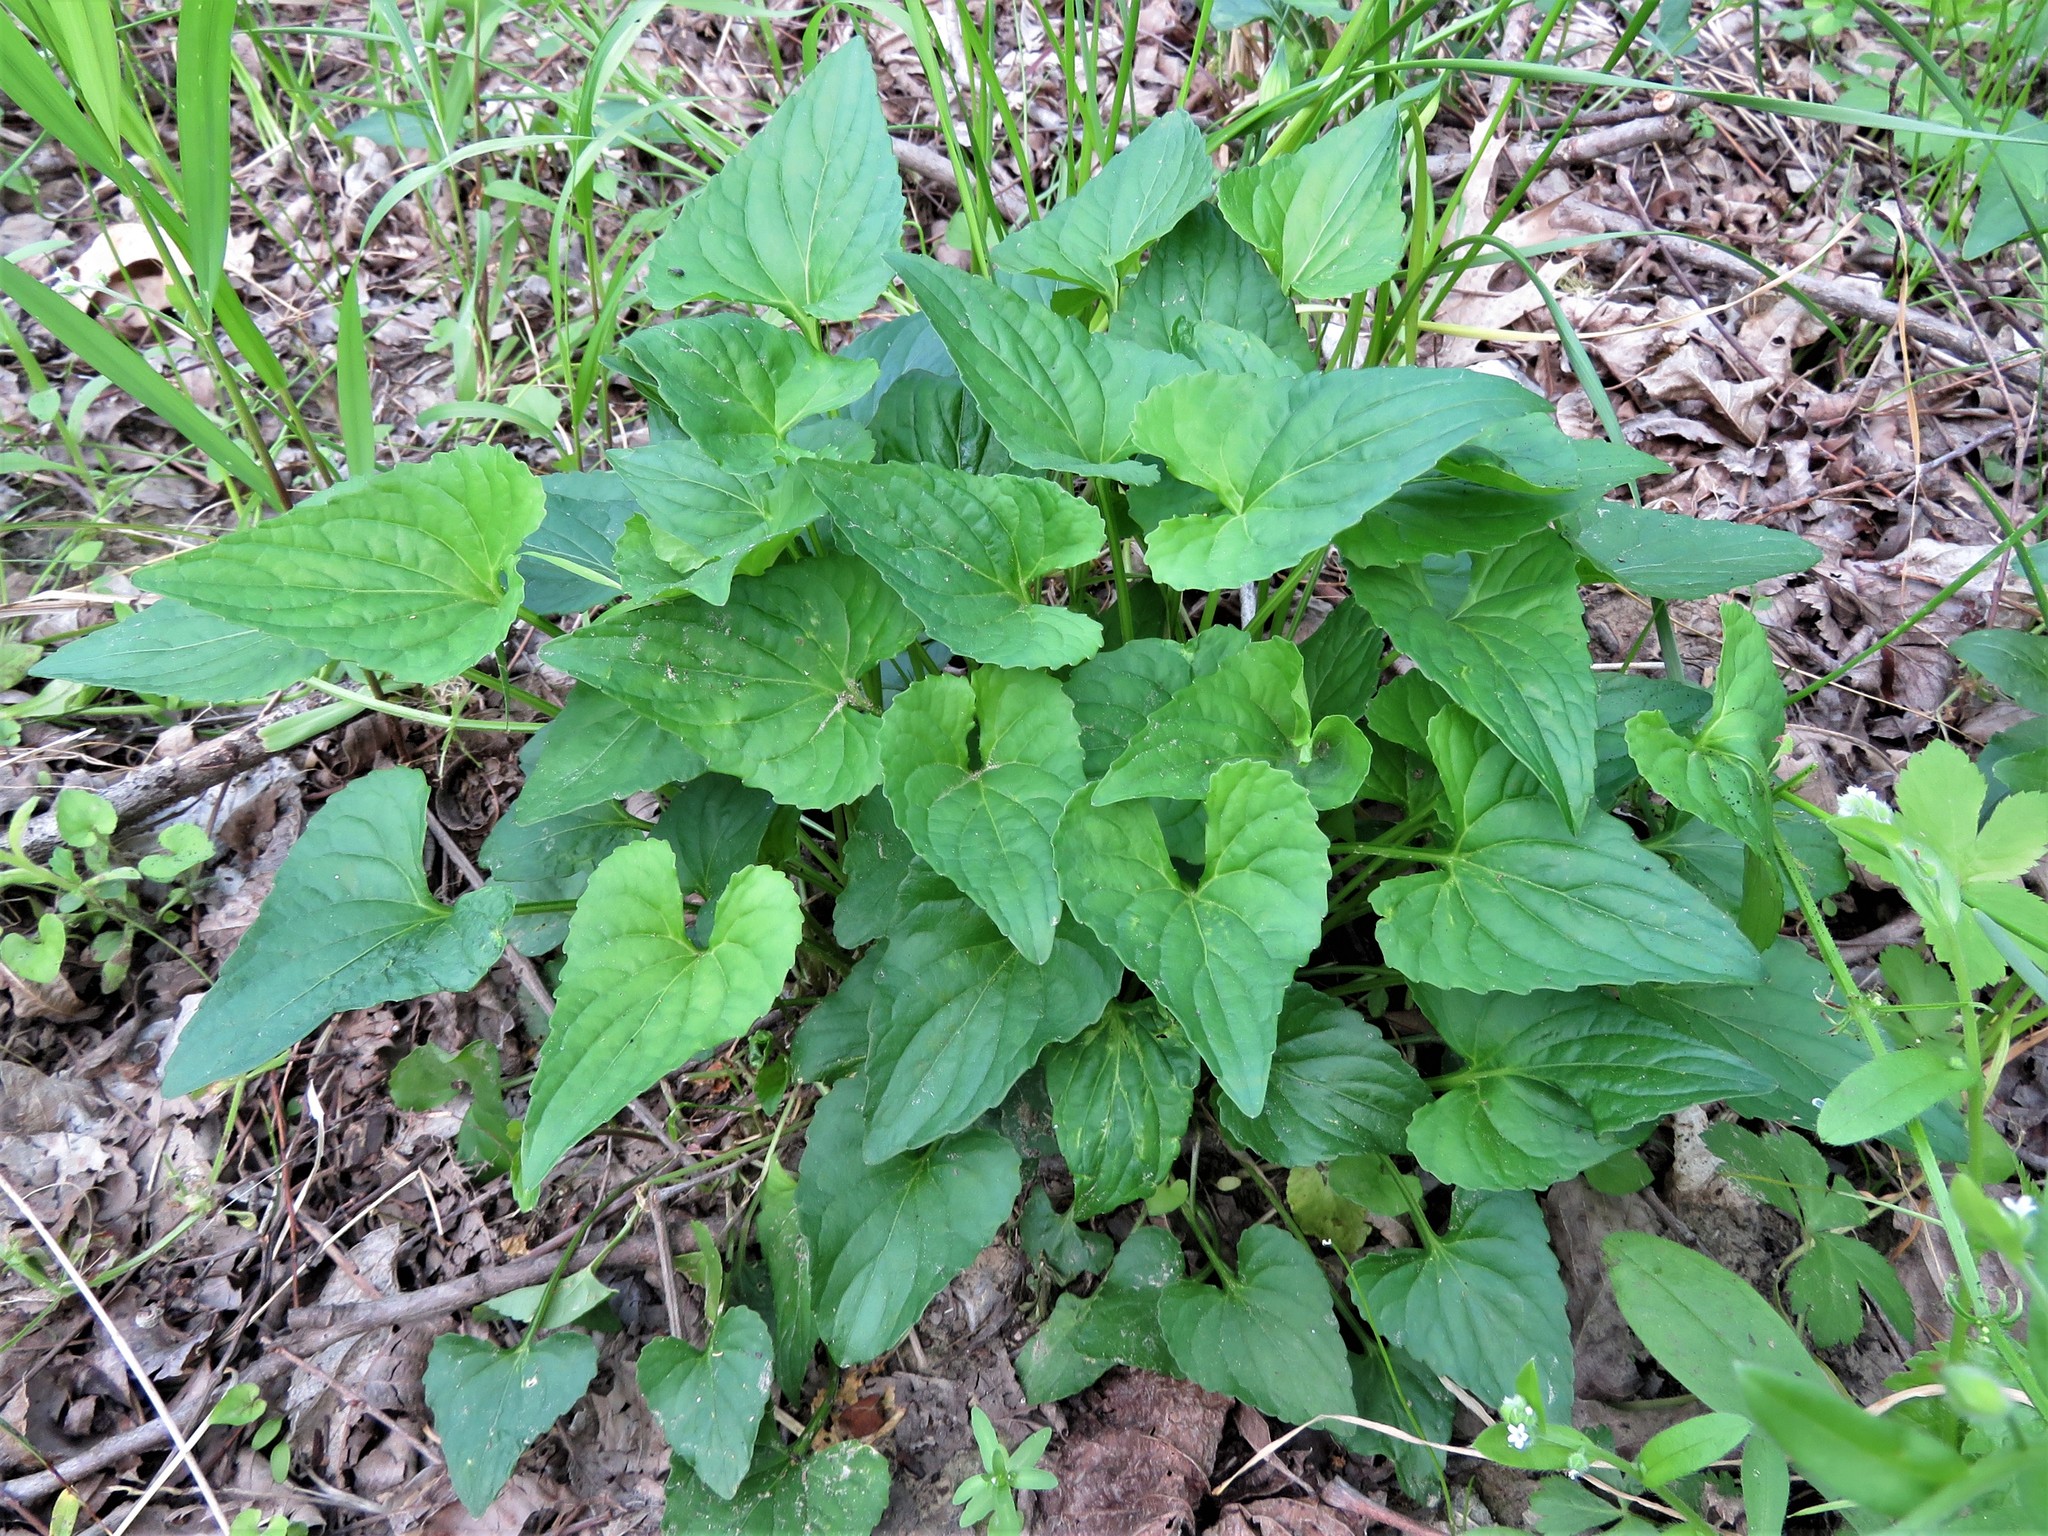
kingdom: Plantae
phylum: Tracheophyta
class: Magnoliopsida
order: Malpighiales
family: Violaceae
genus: Viola
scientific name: Viola missouriensis
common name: Missouri violet
